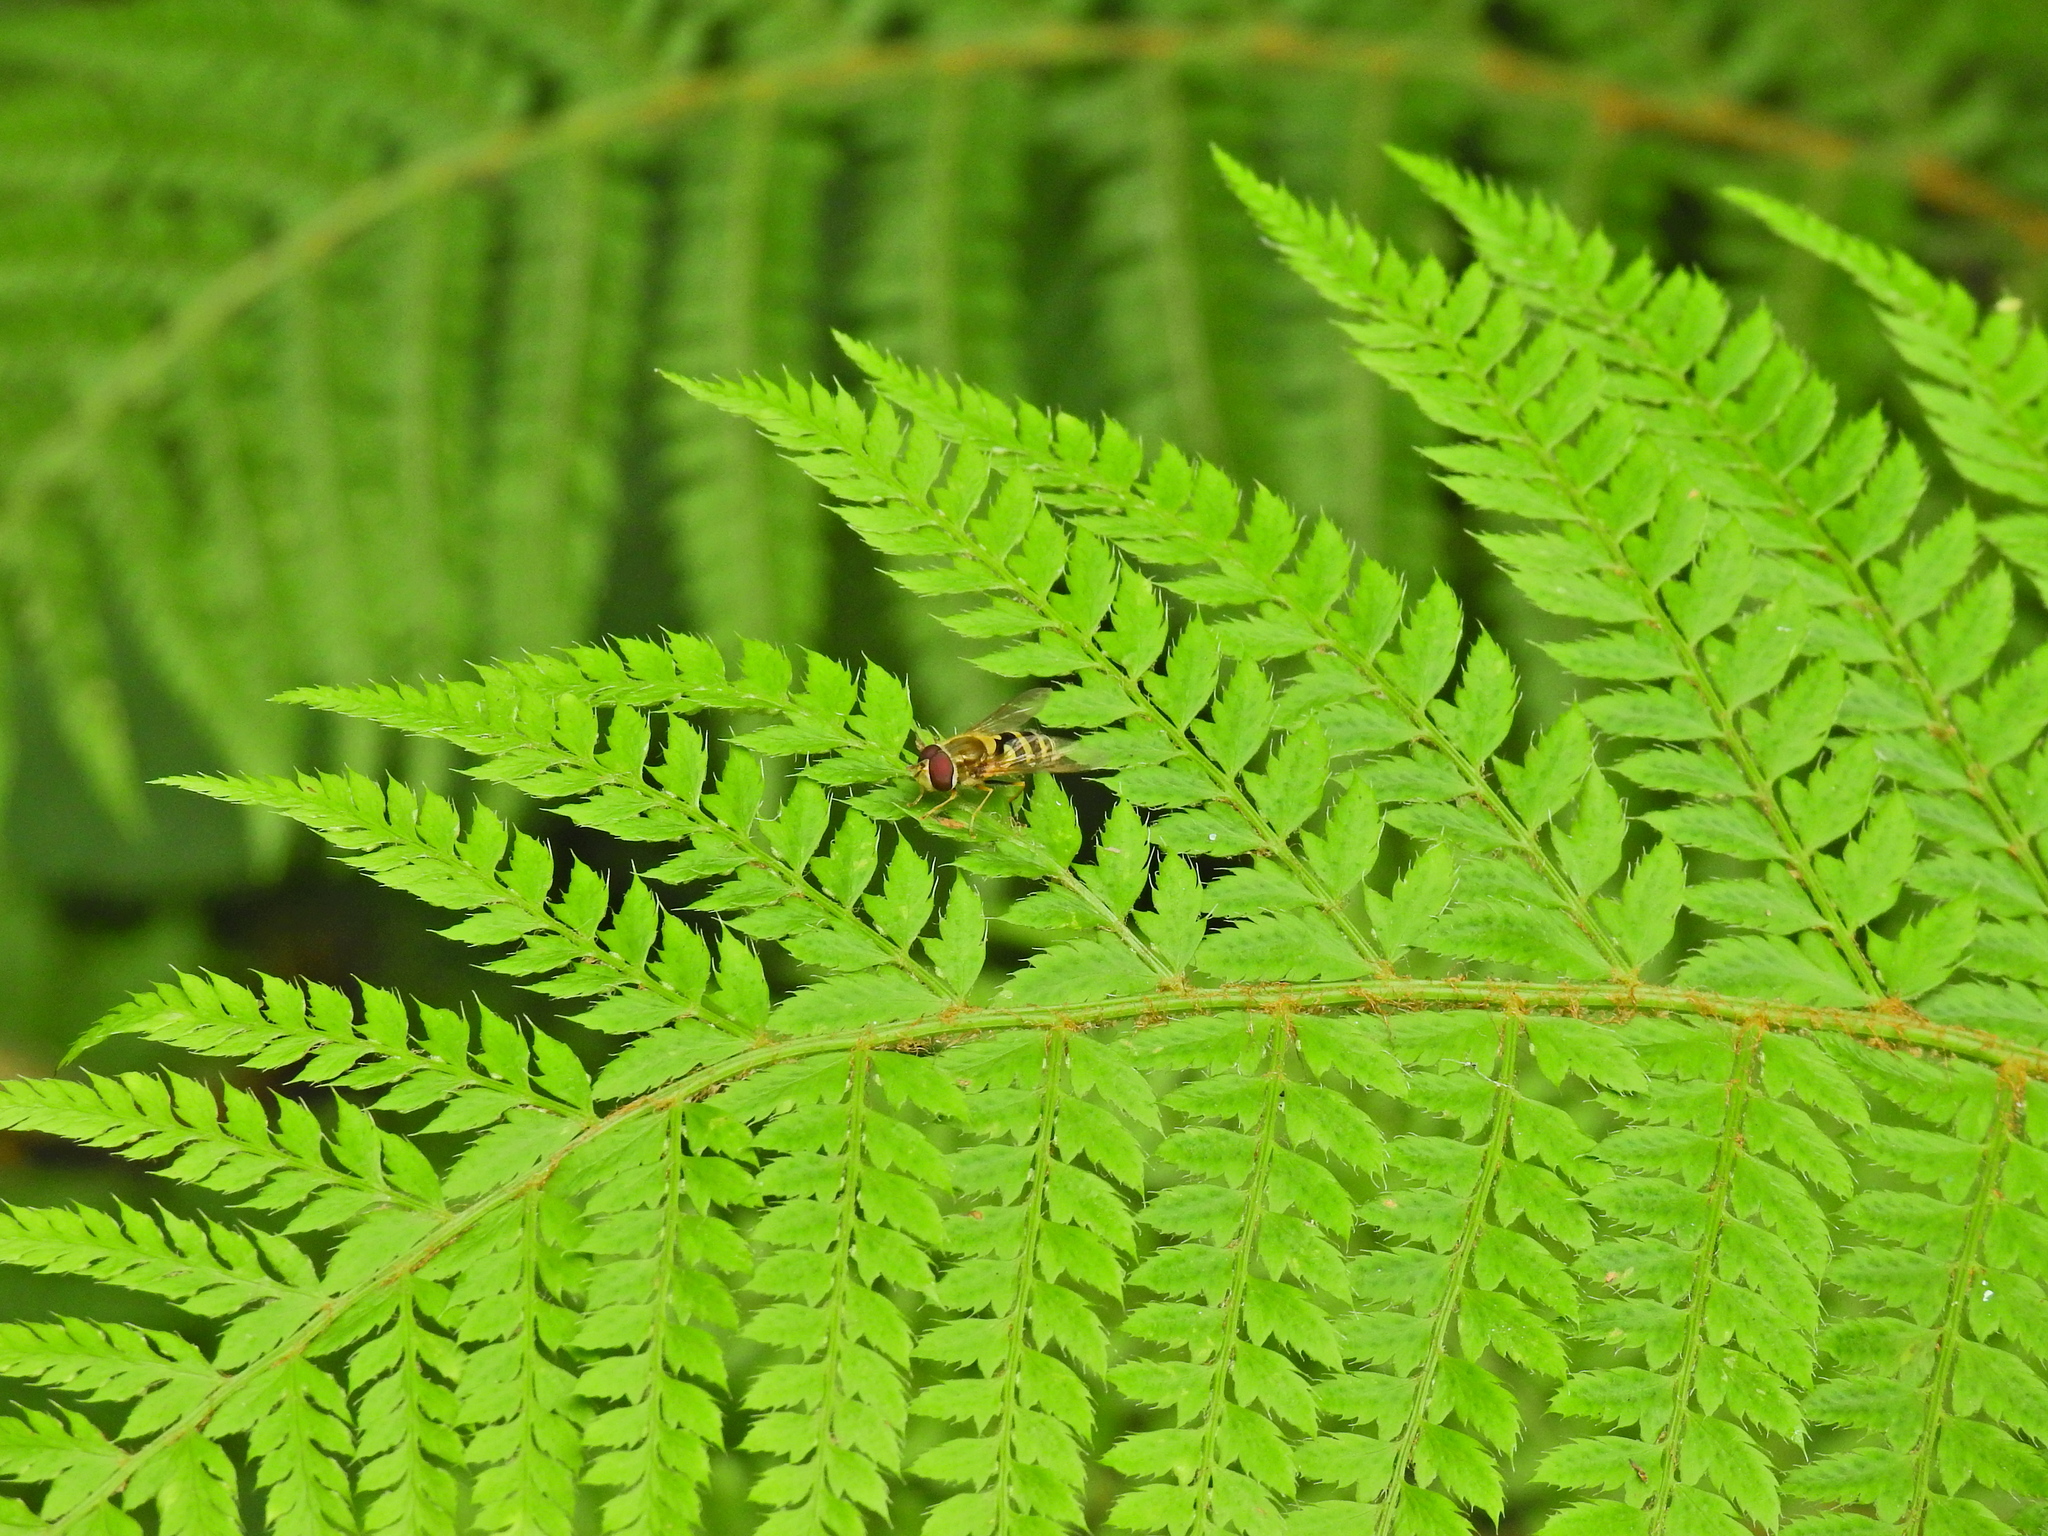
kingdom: Animalia
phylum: Arthropoda
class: Insecta
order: Diptera
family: Syrphidae
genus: Syrphus
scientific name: Syrphus
